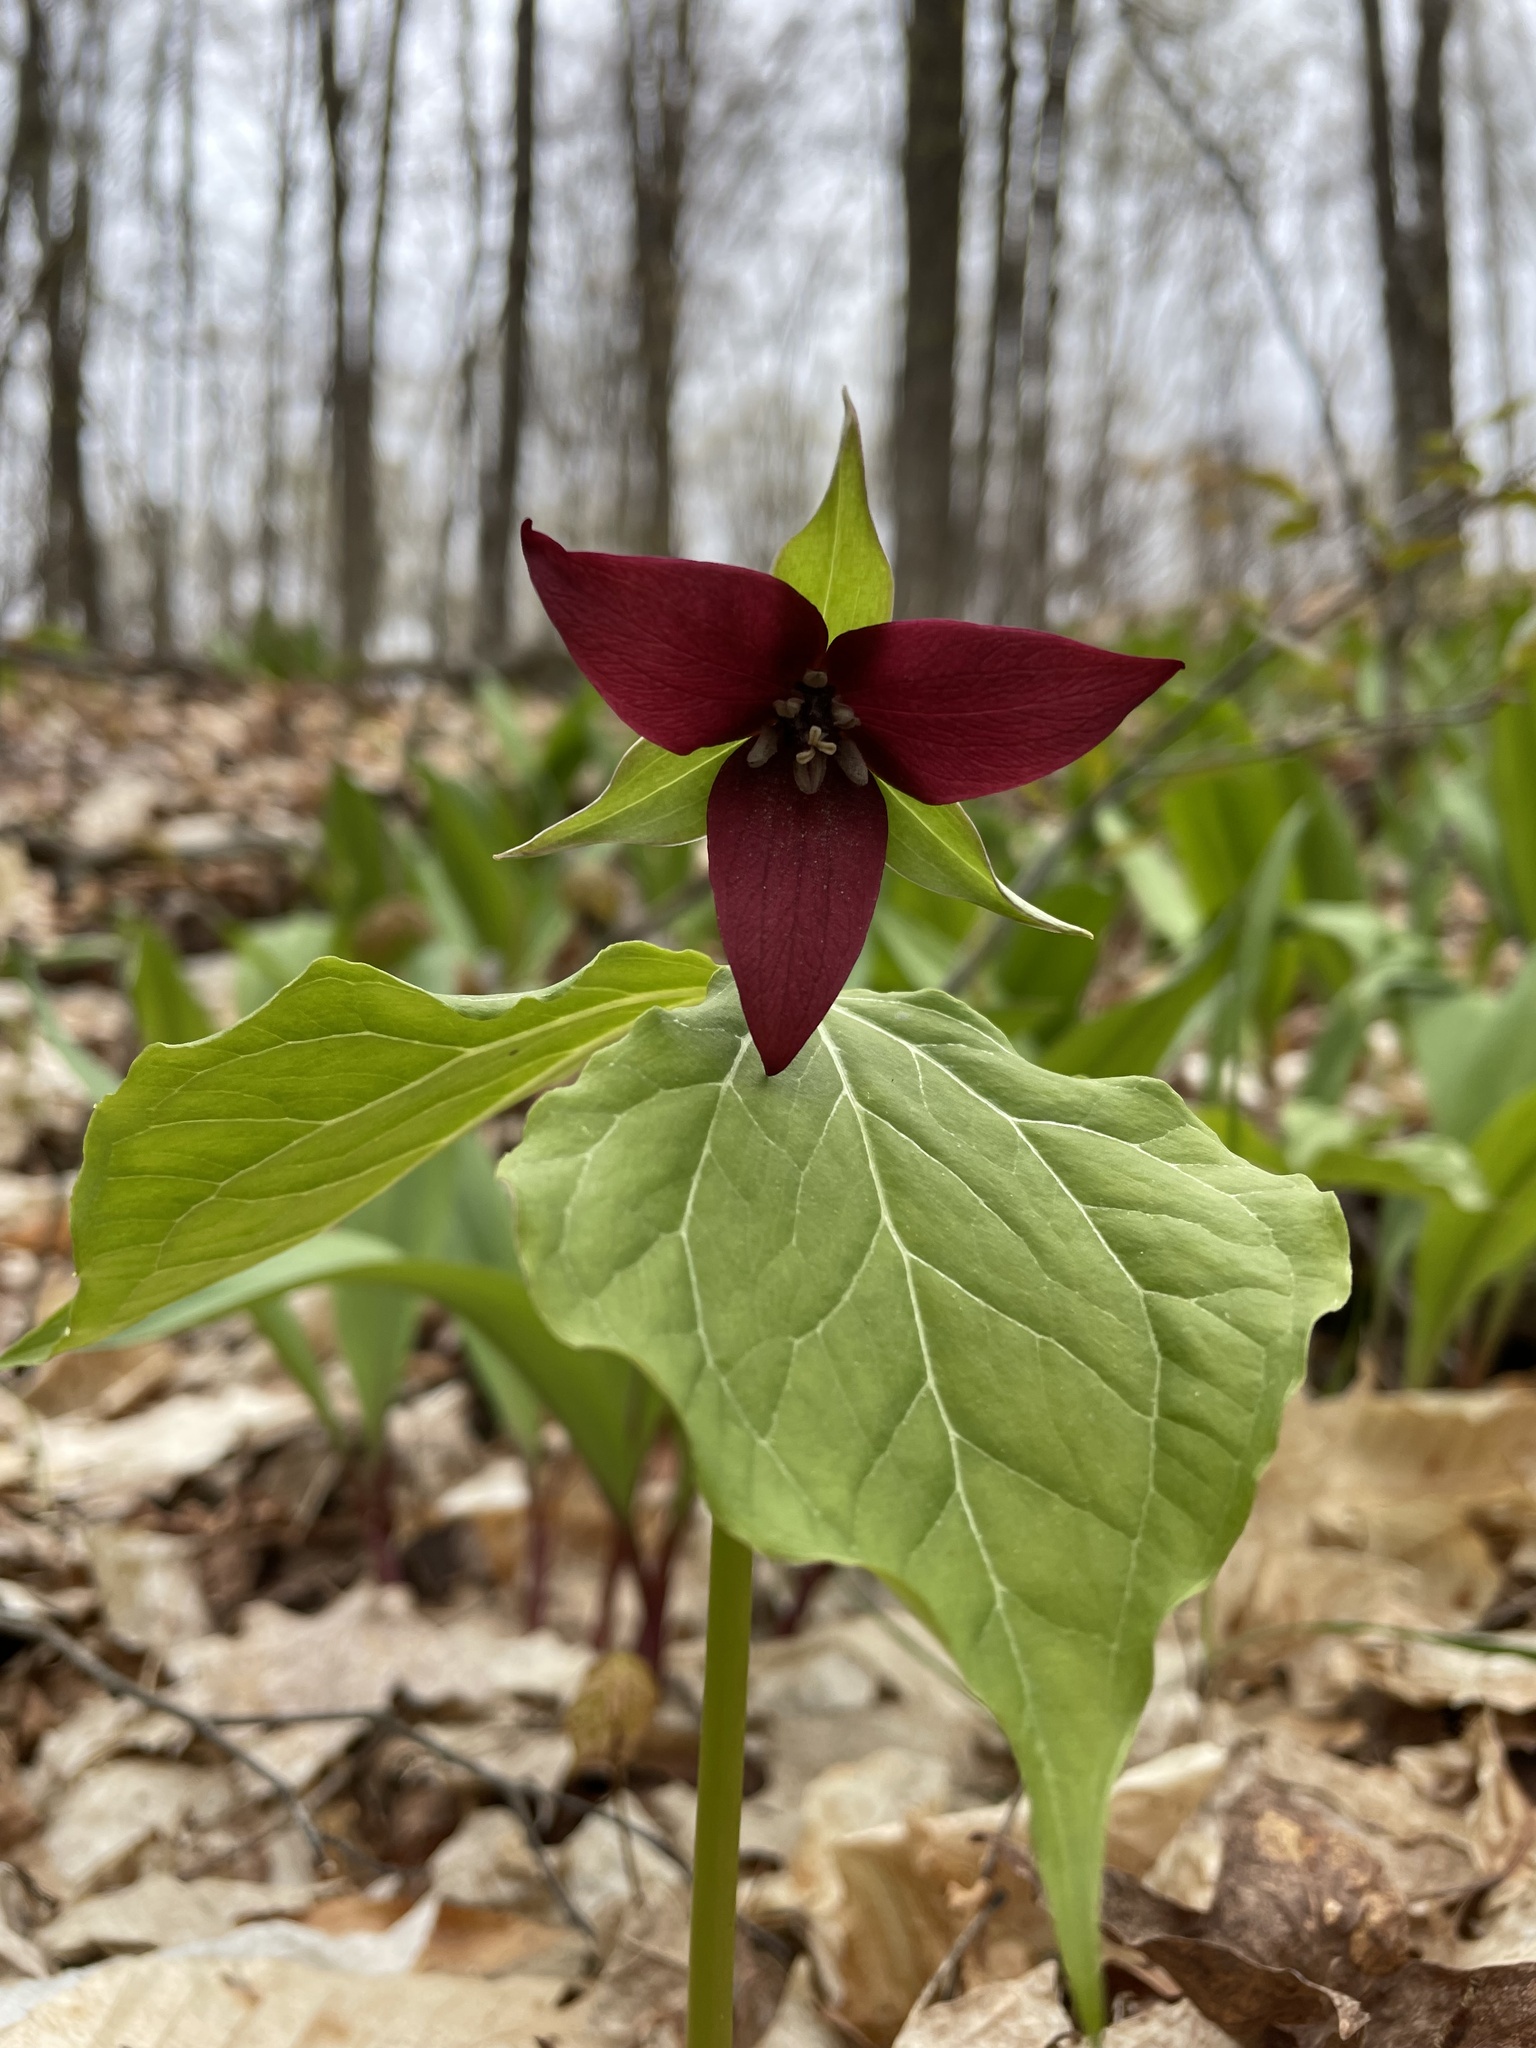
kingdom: Plantae
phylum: Tracheophyta
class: Liliopsida
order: Liliales
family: Melanthiaceae
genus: Trillium
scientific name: Trillium erectum
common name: Purple trillium
